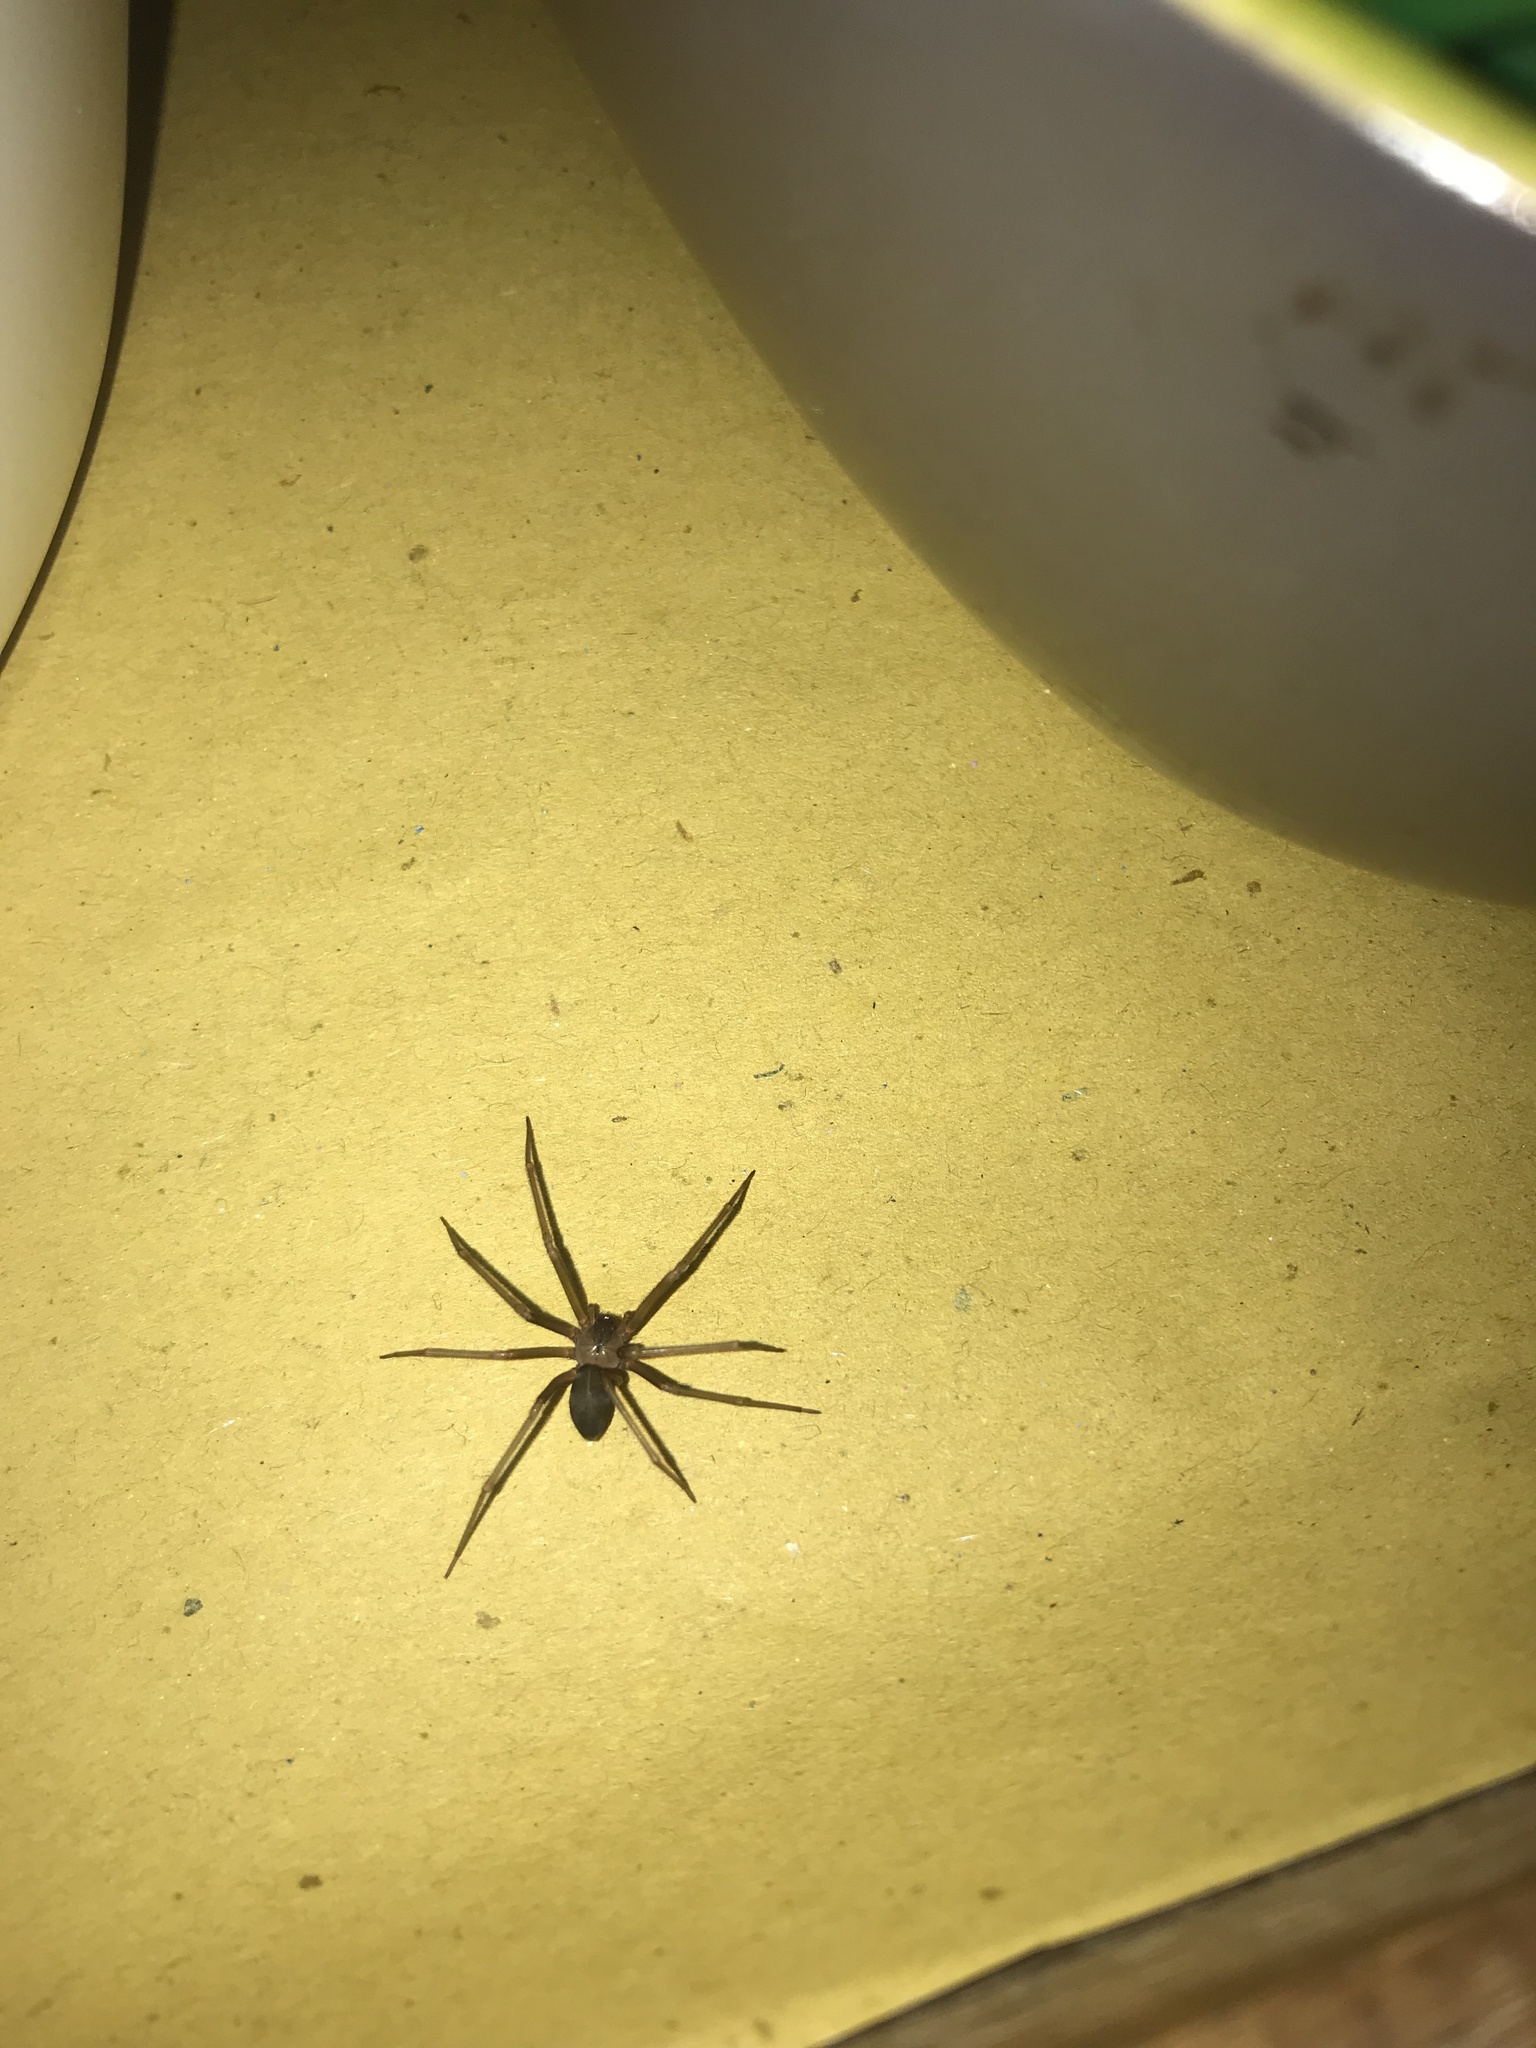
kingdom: Animalia
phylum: Arthropoda
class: Arachnida
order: Araneae
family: Sicariidae
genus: Loxosceles
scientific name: Loxosceles rufescens
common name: Mediterranean recluse spider
